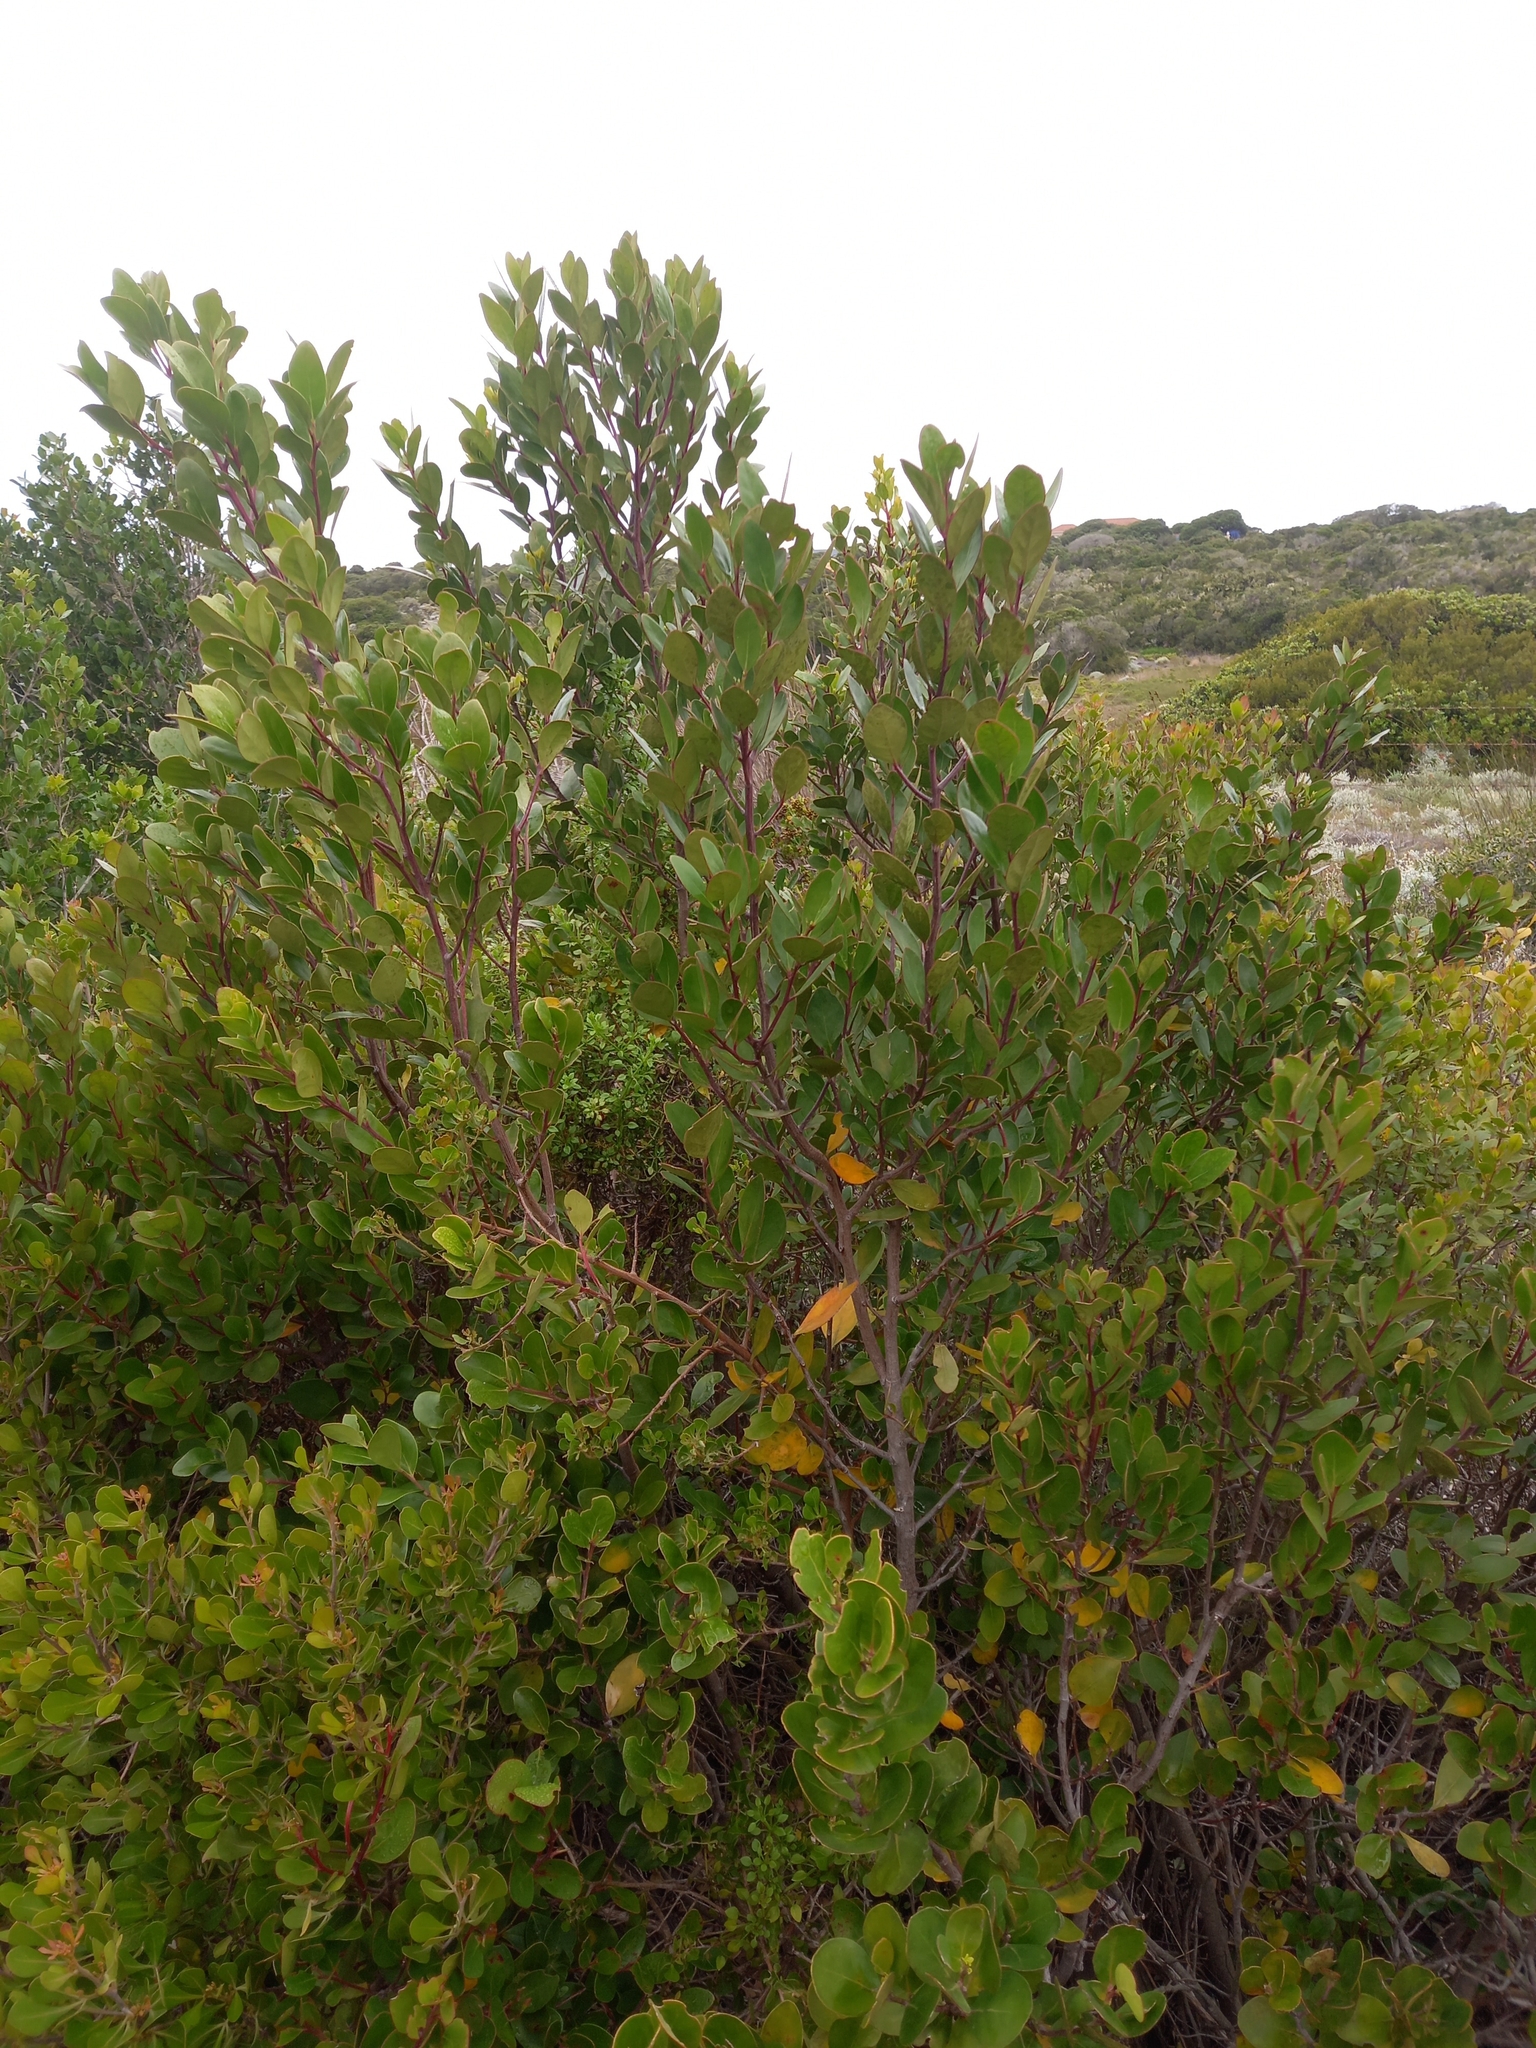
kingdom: Plantae
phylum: Tracheophyta
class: Magnoliopsida
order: Celastrales
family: Celastraceae
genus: Pterocelastrus
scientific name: Pterocelastrus tricuspidatus
